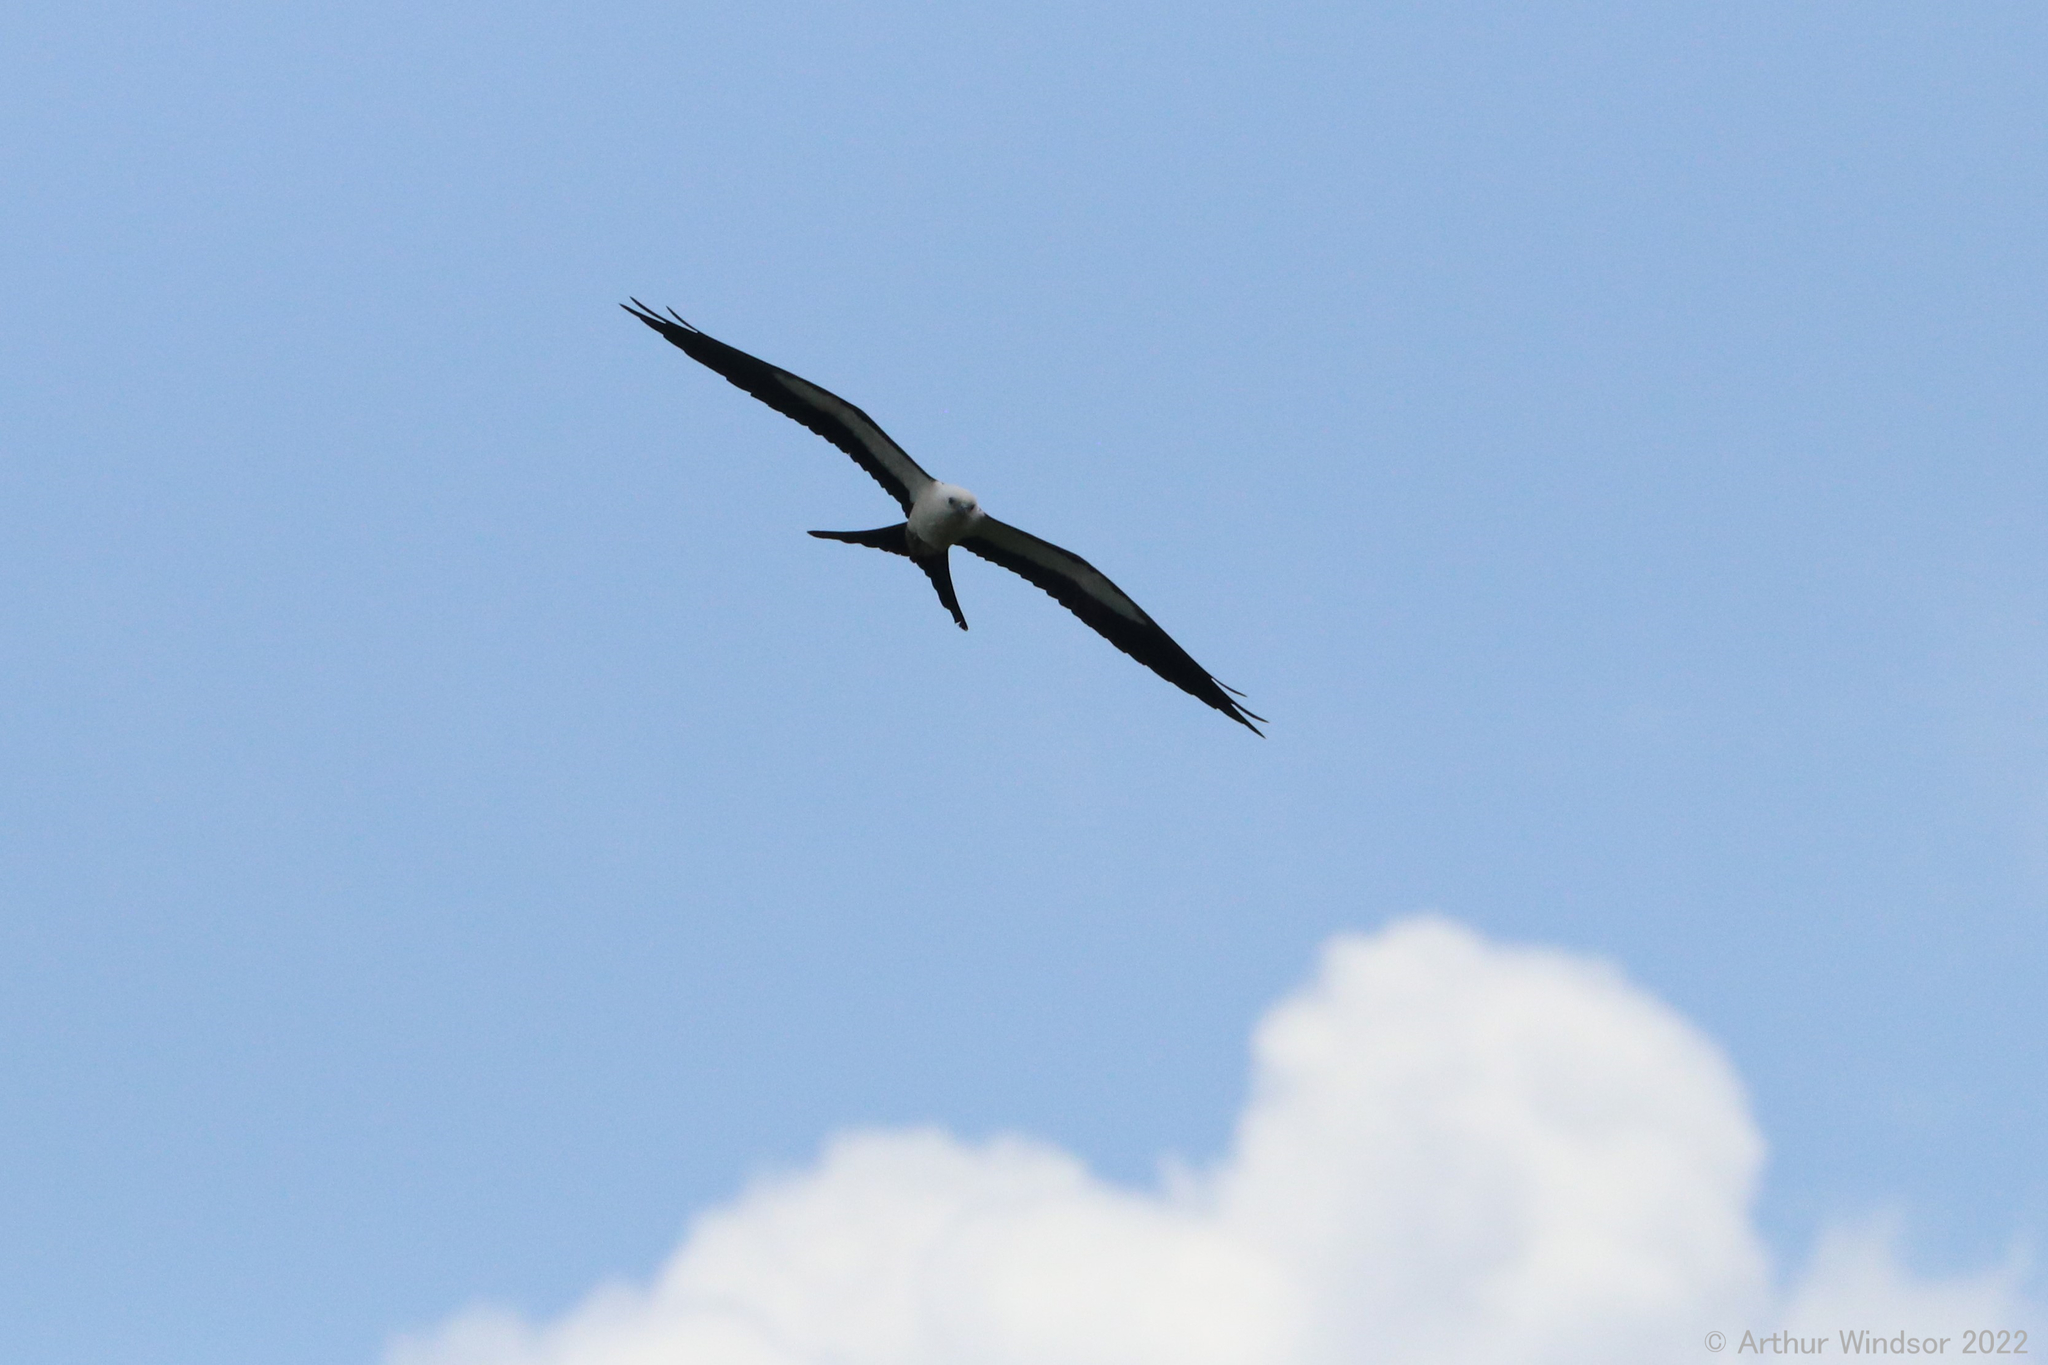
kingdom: Animalia
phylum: Chordata
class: Aves
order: Accipitriformes
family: Accipitridae
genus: Elanoides
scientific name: Elanoides forficatus
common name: Swallow-tailed kite
